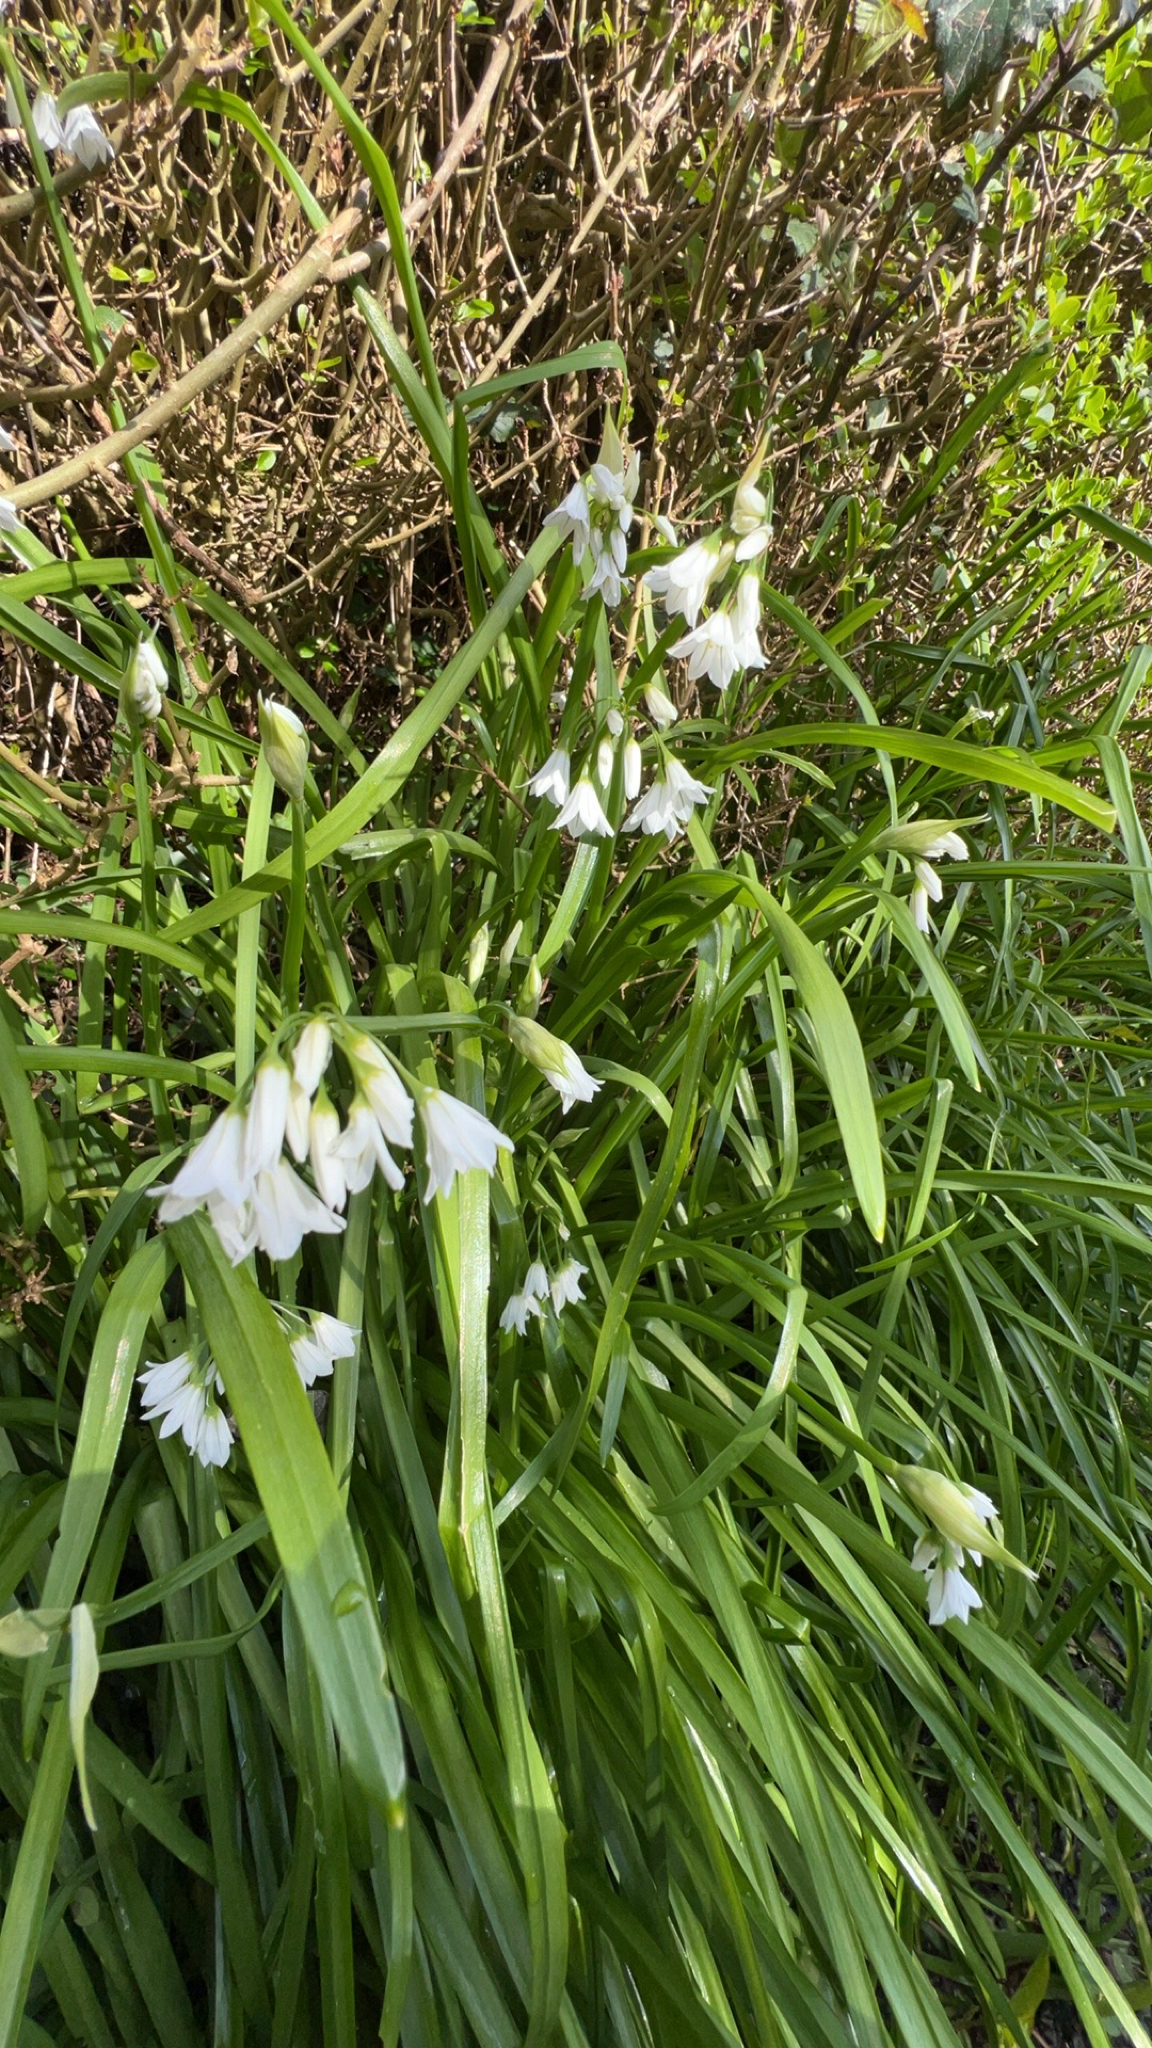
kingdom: Plantae
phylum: Tracheophyta
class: Liliopsida
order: Asparagales
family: Amaryllidaceae
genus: Allium
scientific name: Allium triquetrum
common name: Three-cornered garlic
